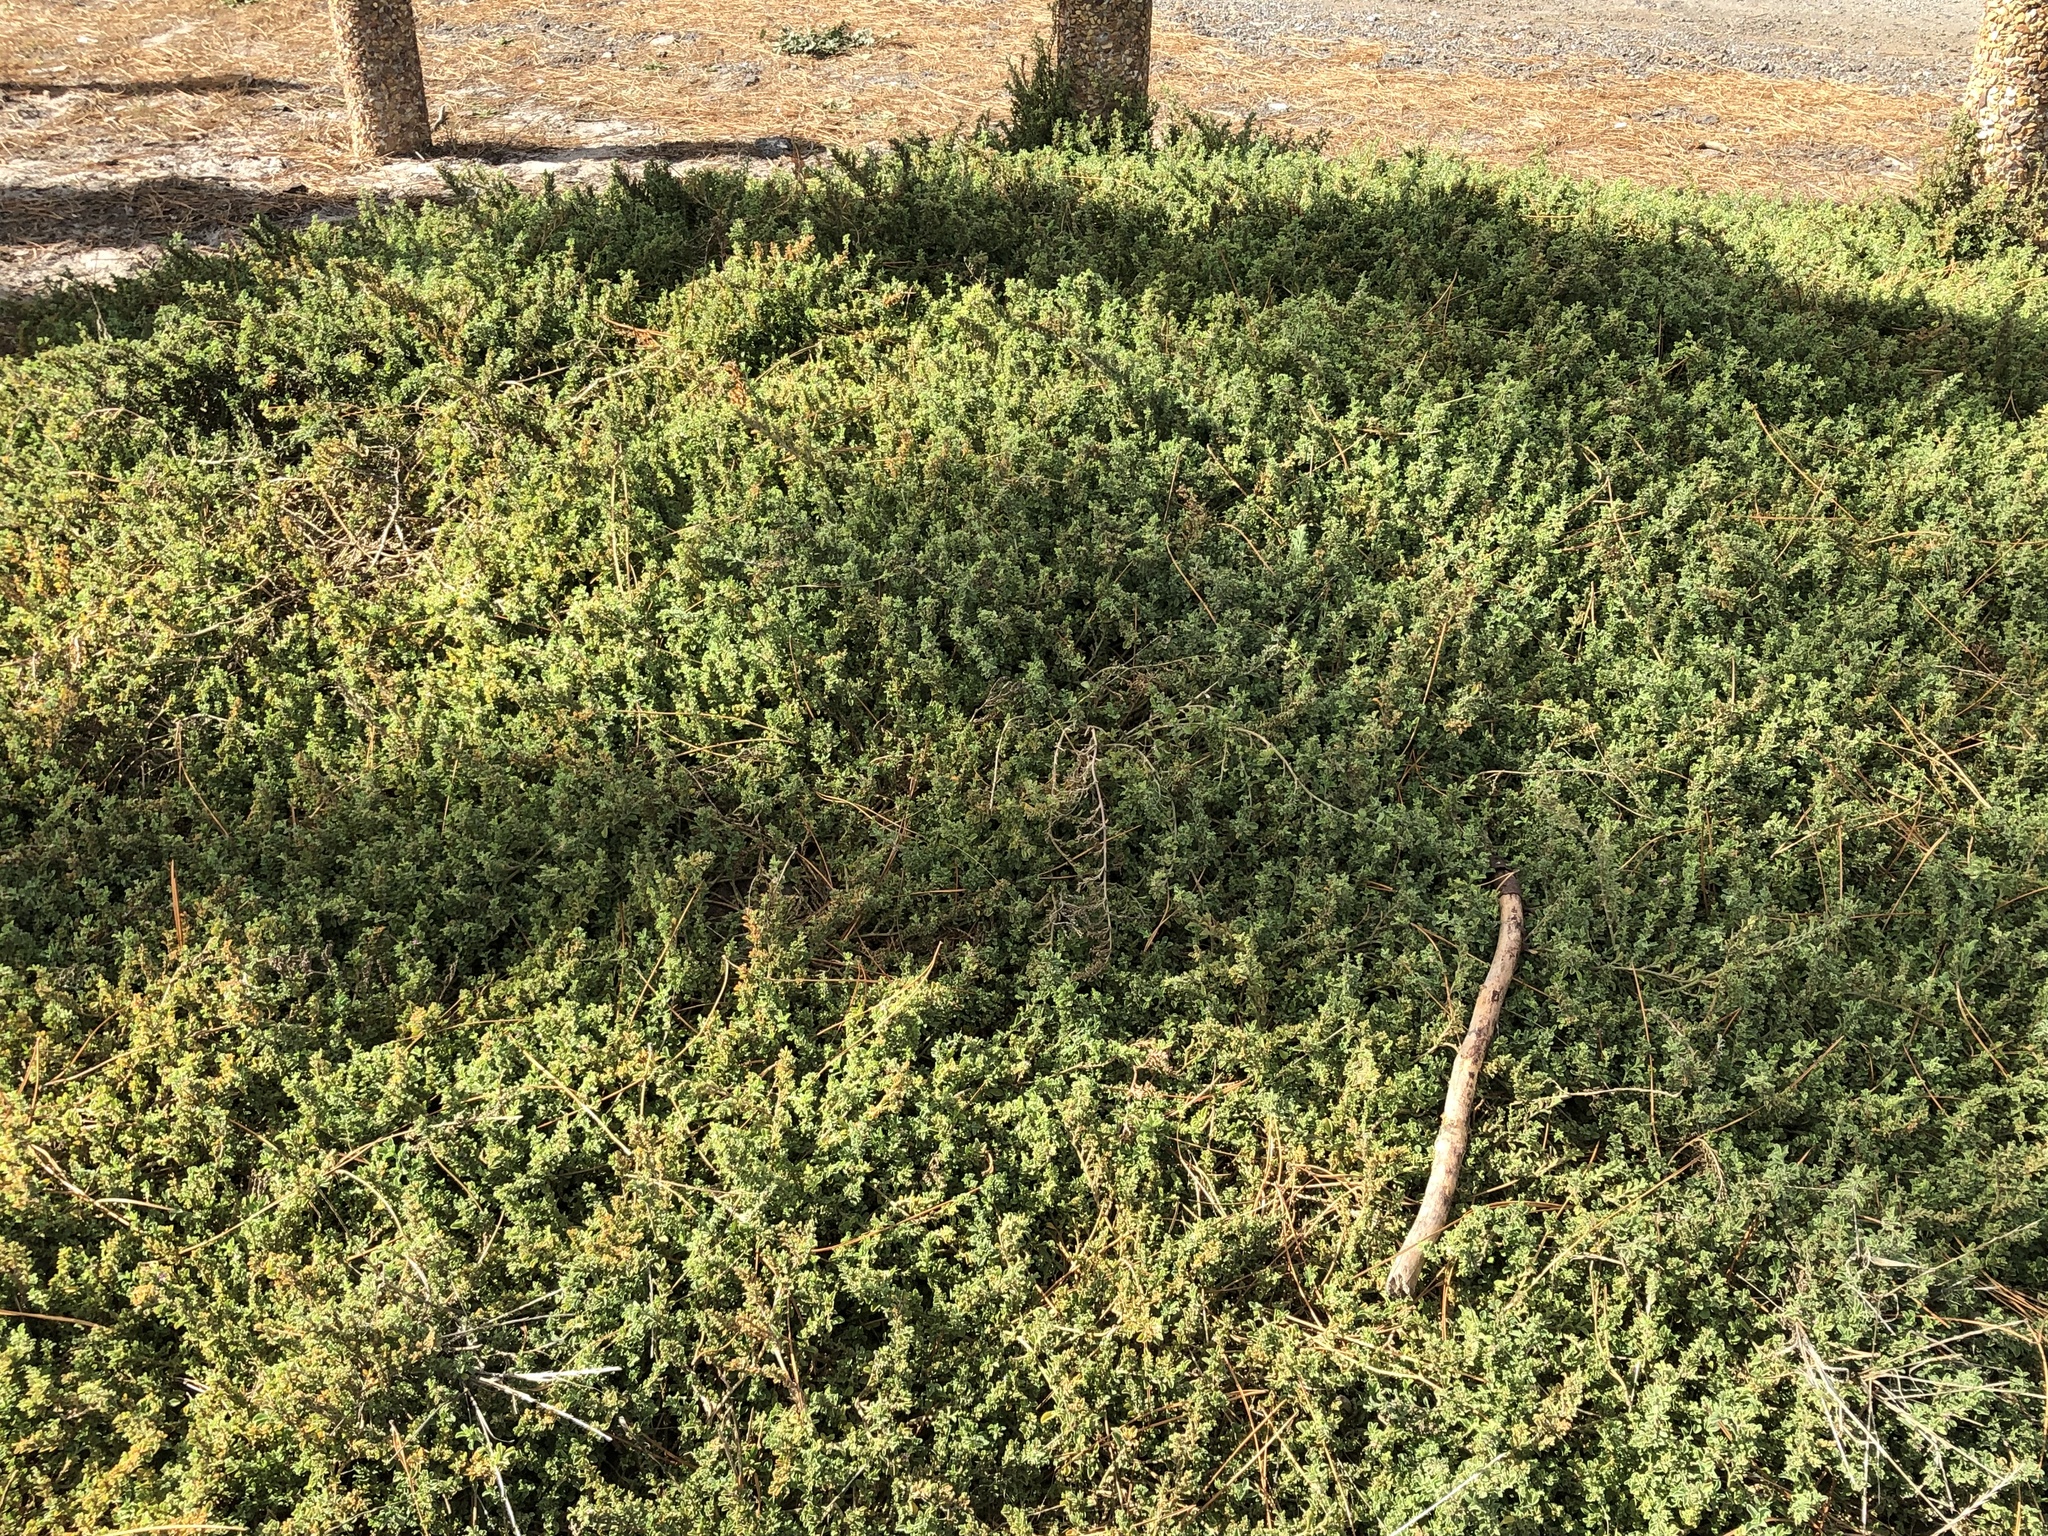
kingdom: Plantae
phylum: Tracheophyta
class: Magnoliopsida
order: Caryophyllales
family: Aizoaceae
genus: Aizoon
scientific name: Aizoon pubescens
